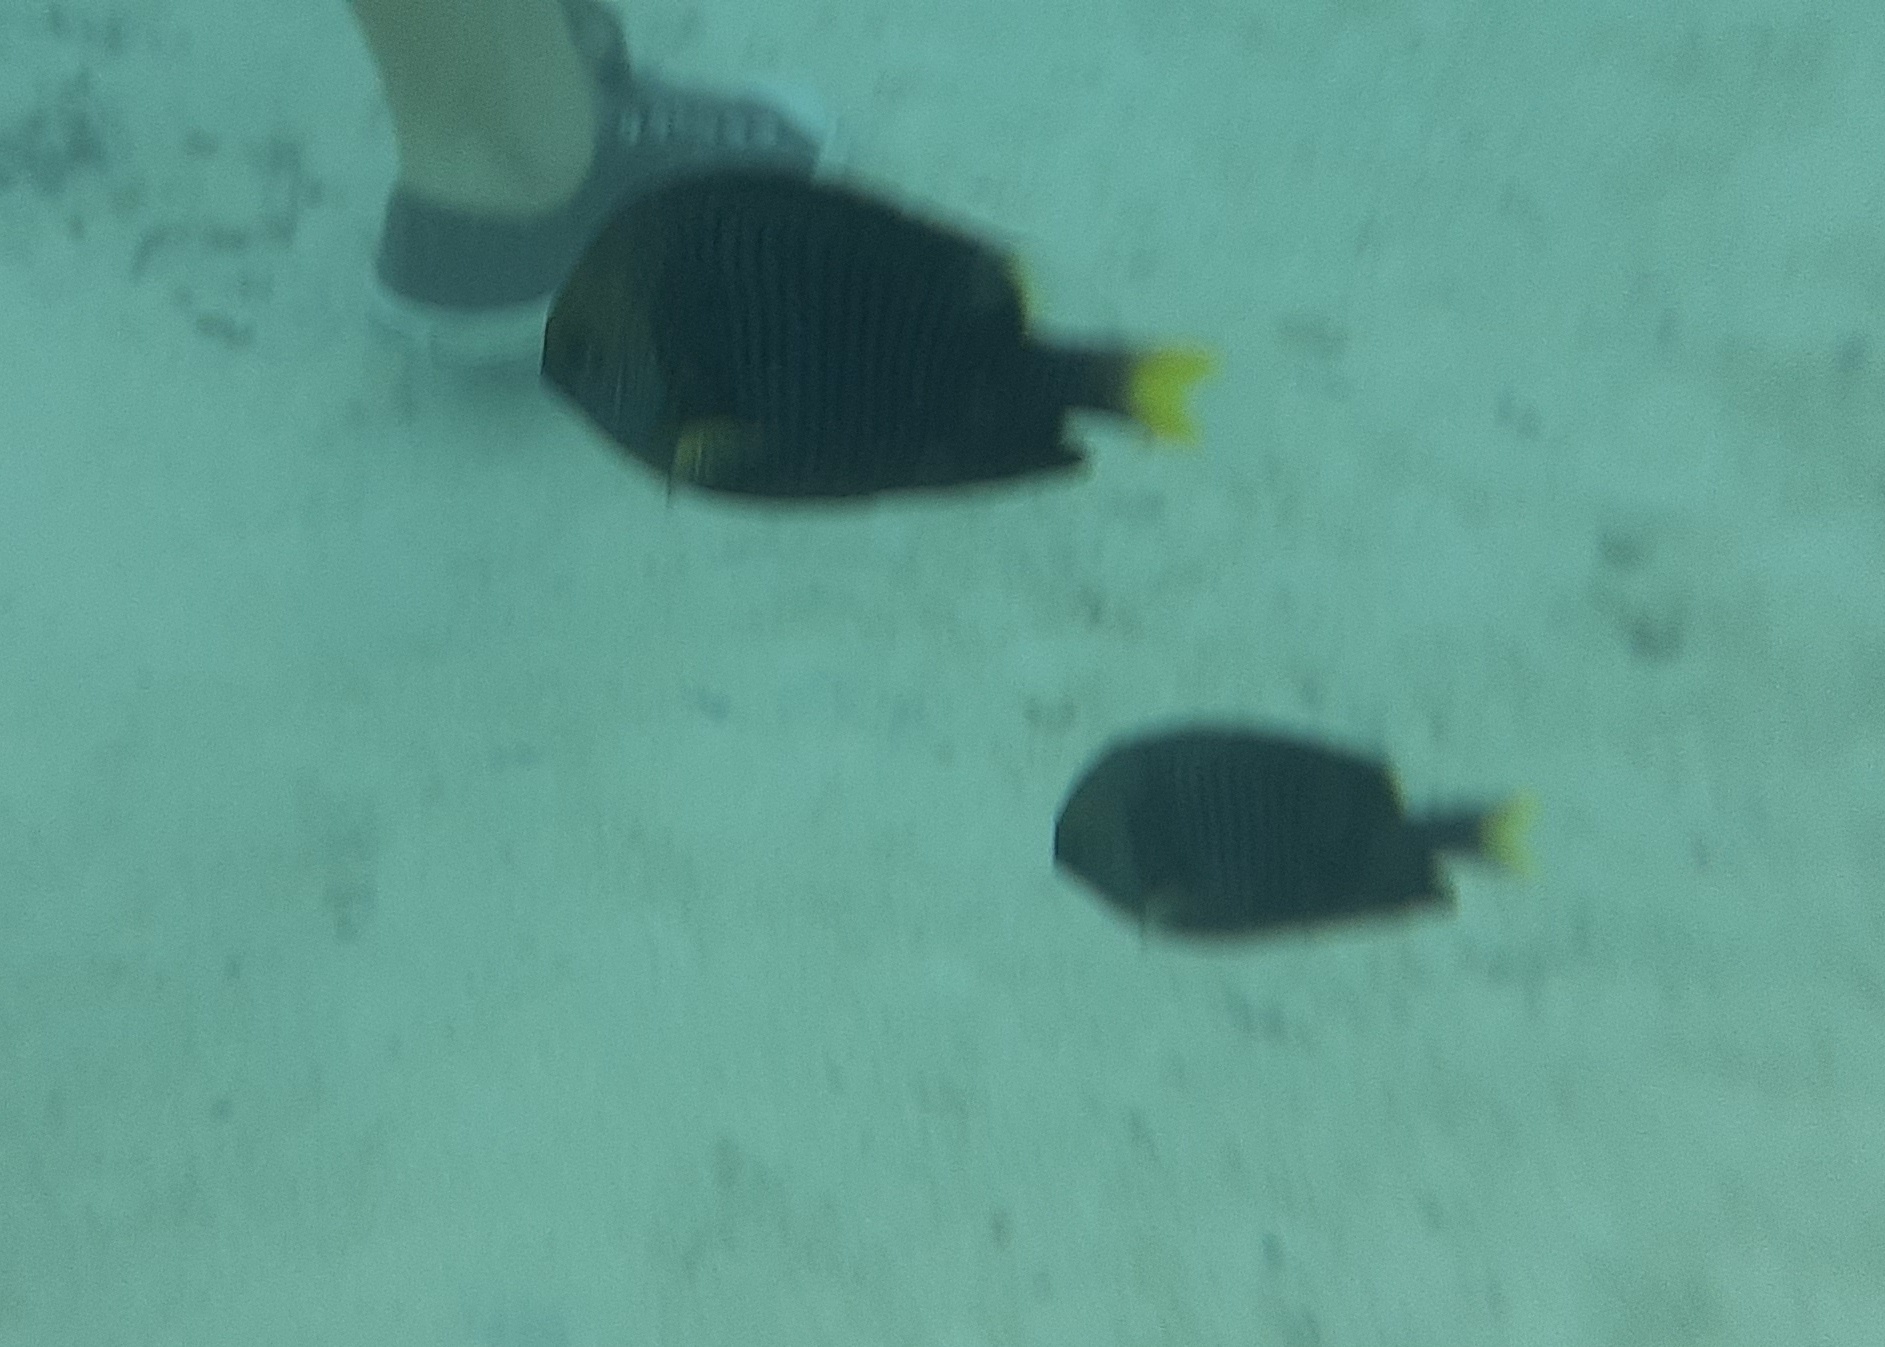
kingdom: Animalia
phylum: Chordata
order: Perciformes
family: Pomacentridae
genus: Dascyllus
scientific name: Dascyllus flavicaudus
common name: Yellow-tailed dascyllus
